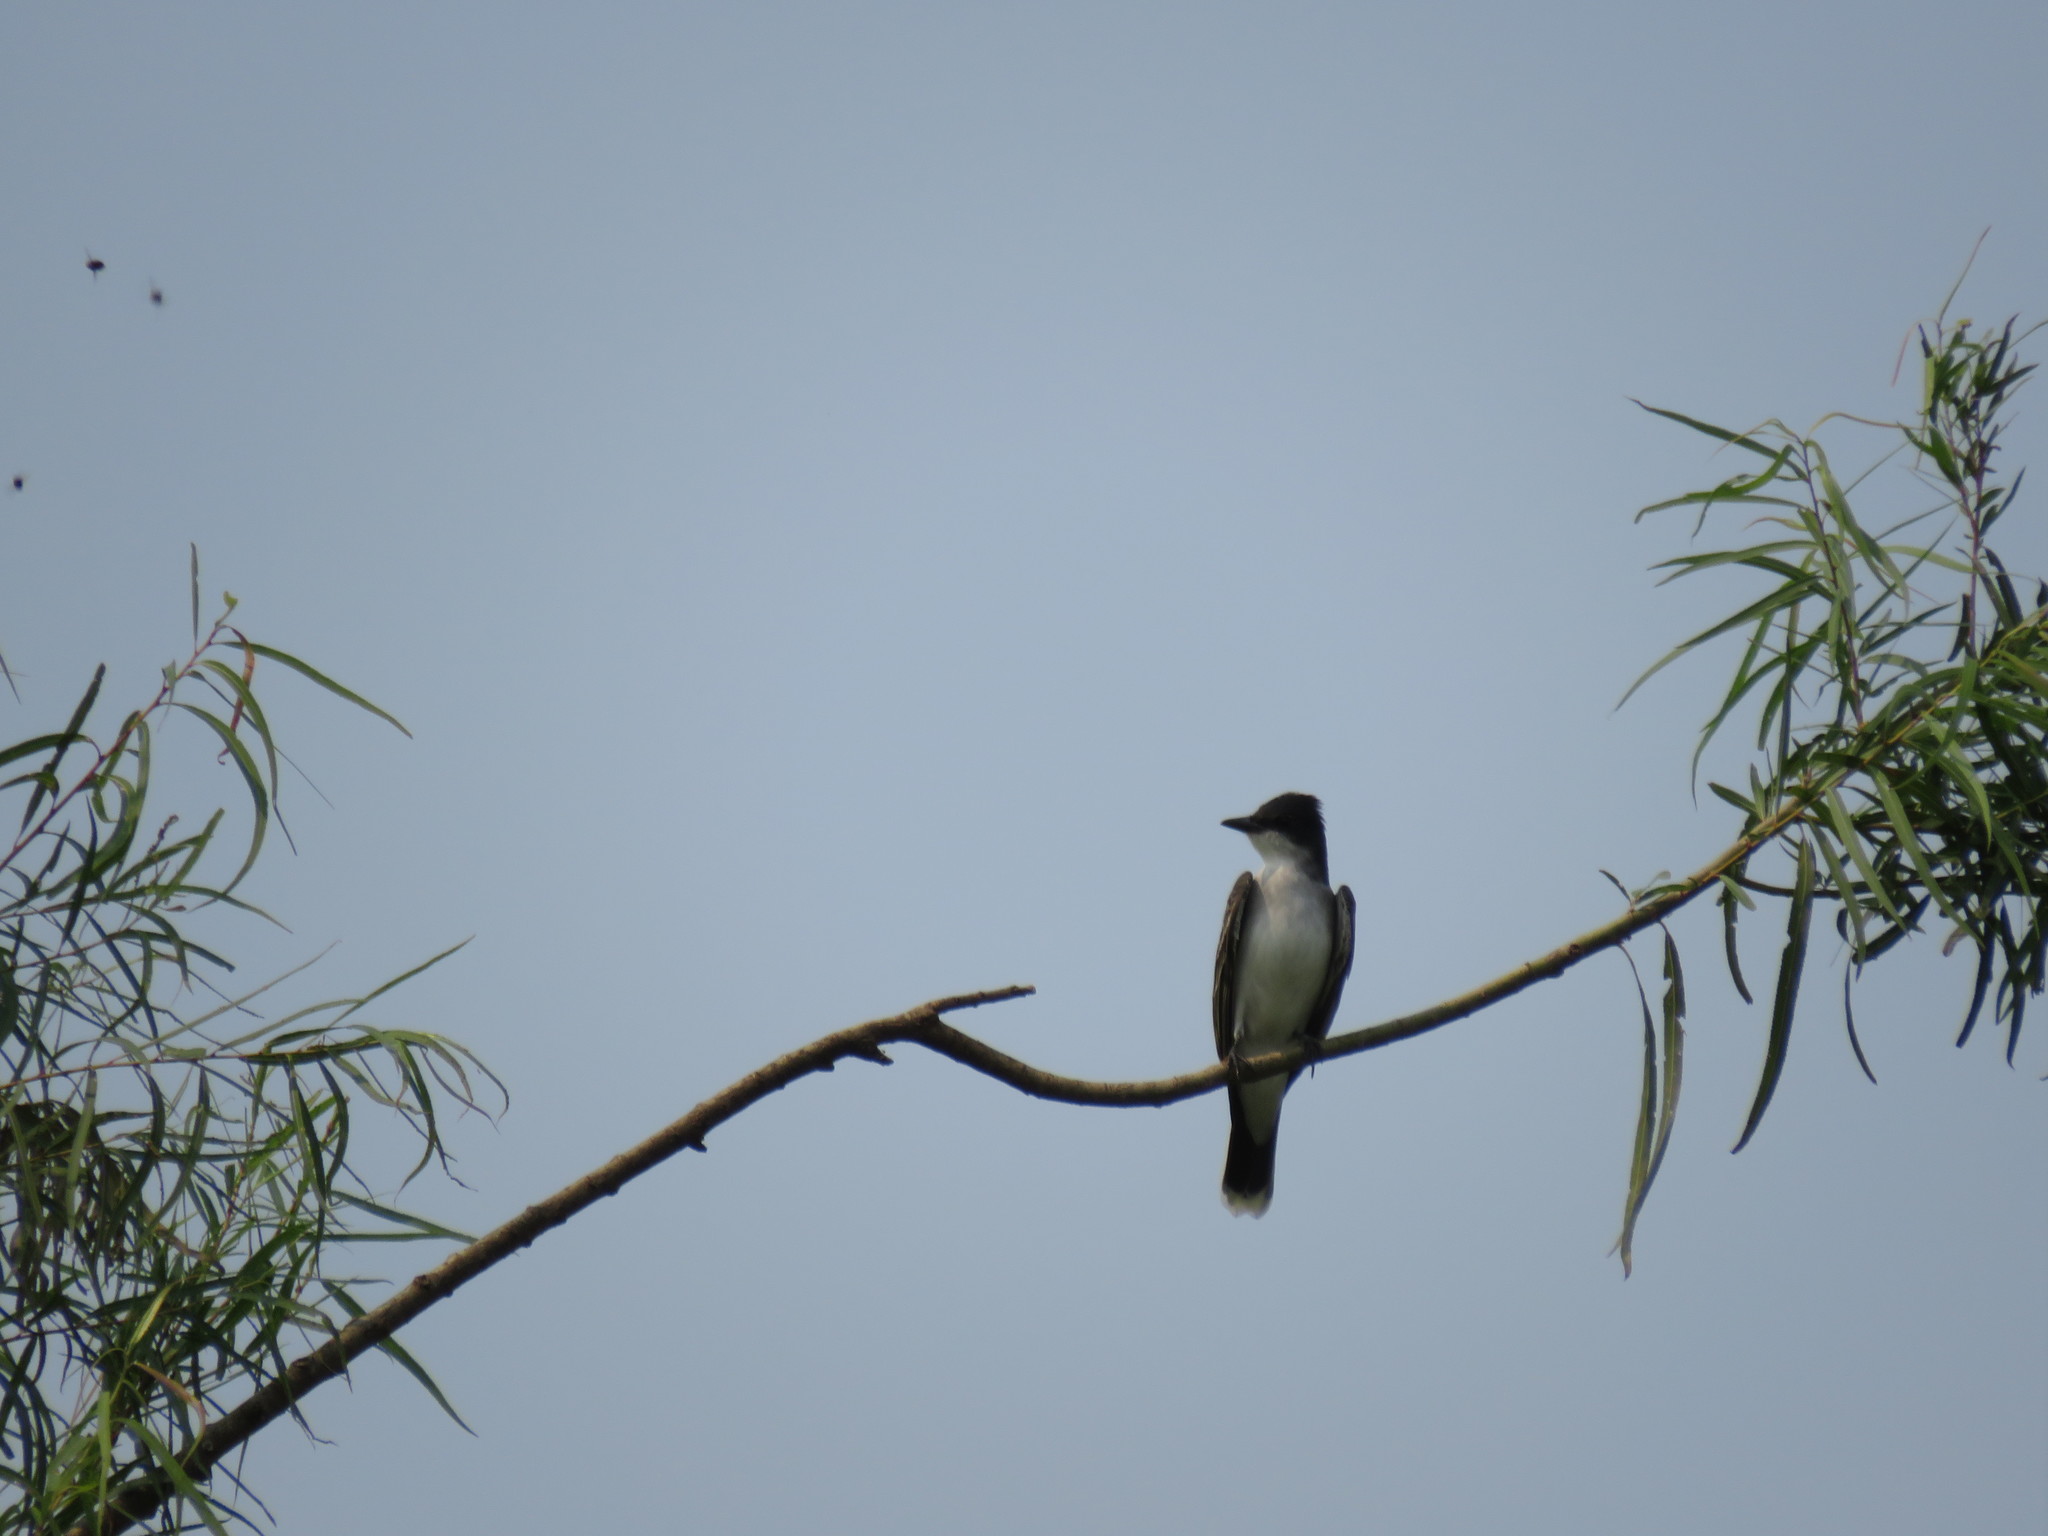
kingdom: Animalia
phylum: Chordata
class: Aves
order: Passeriformes
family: Tyrannidae
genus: Tyrannus
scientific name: Tyrannus tyrannus
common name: Eastern kingbird
